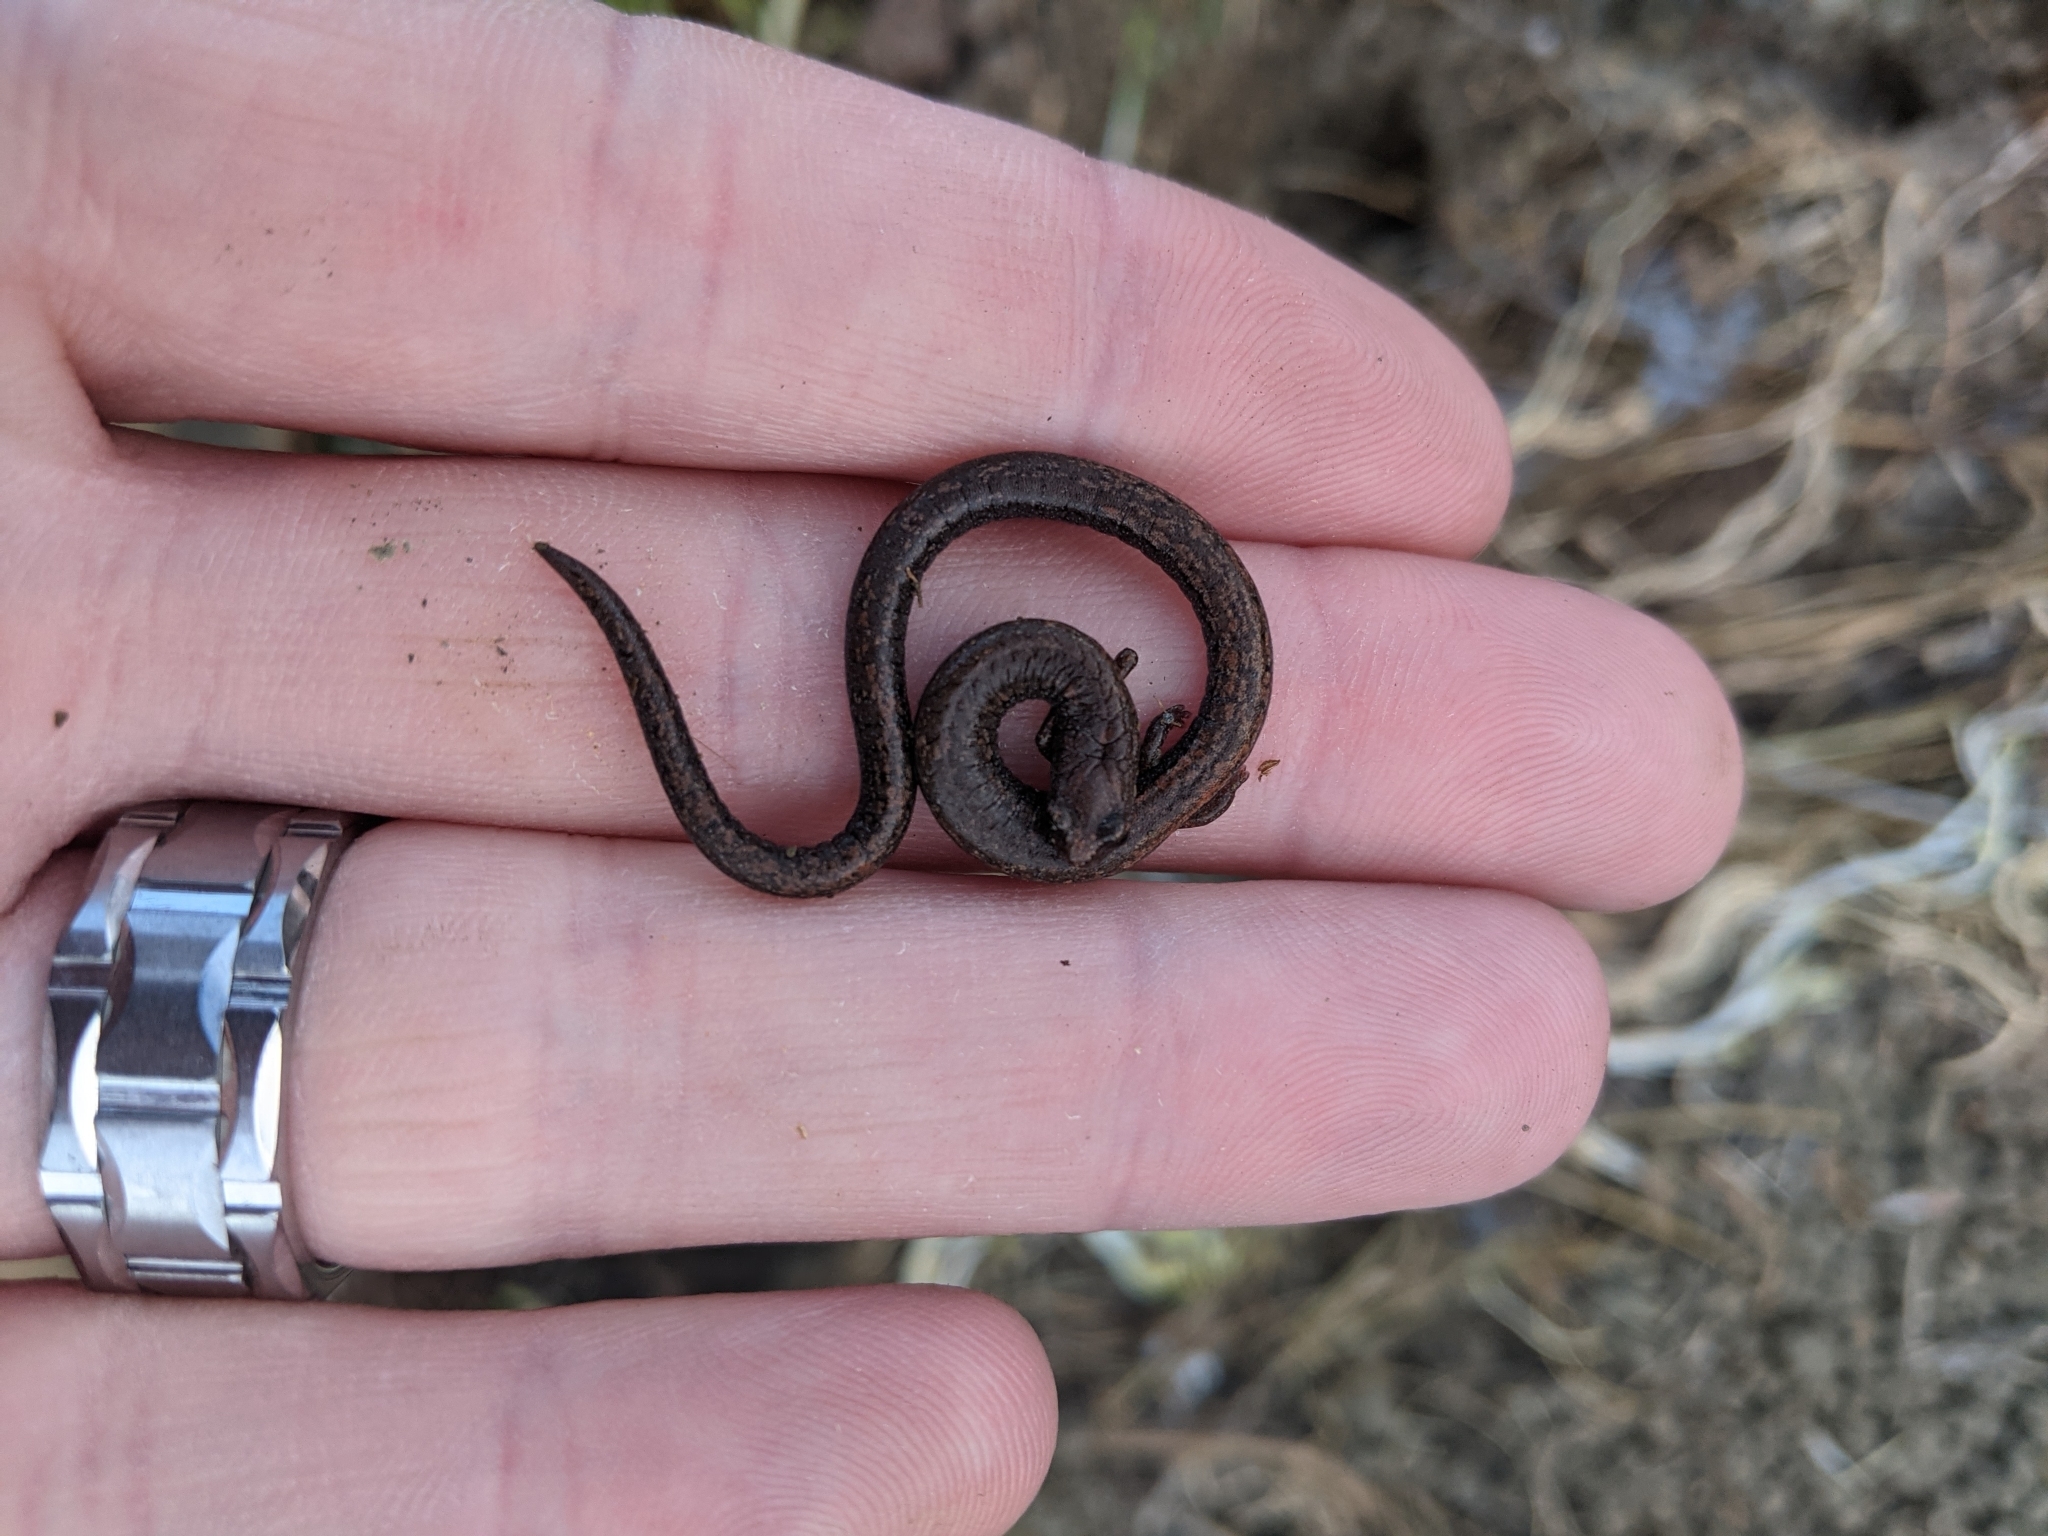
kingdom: Animalia
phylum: Chordata
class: Amphibia
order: Caudata
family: Plethodontidae
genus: Batrachoseps
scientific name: Batrachoseps nigriventris
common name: Black-bellied slender salamander
